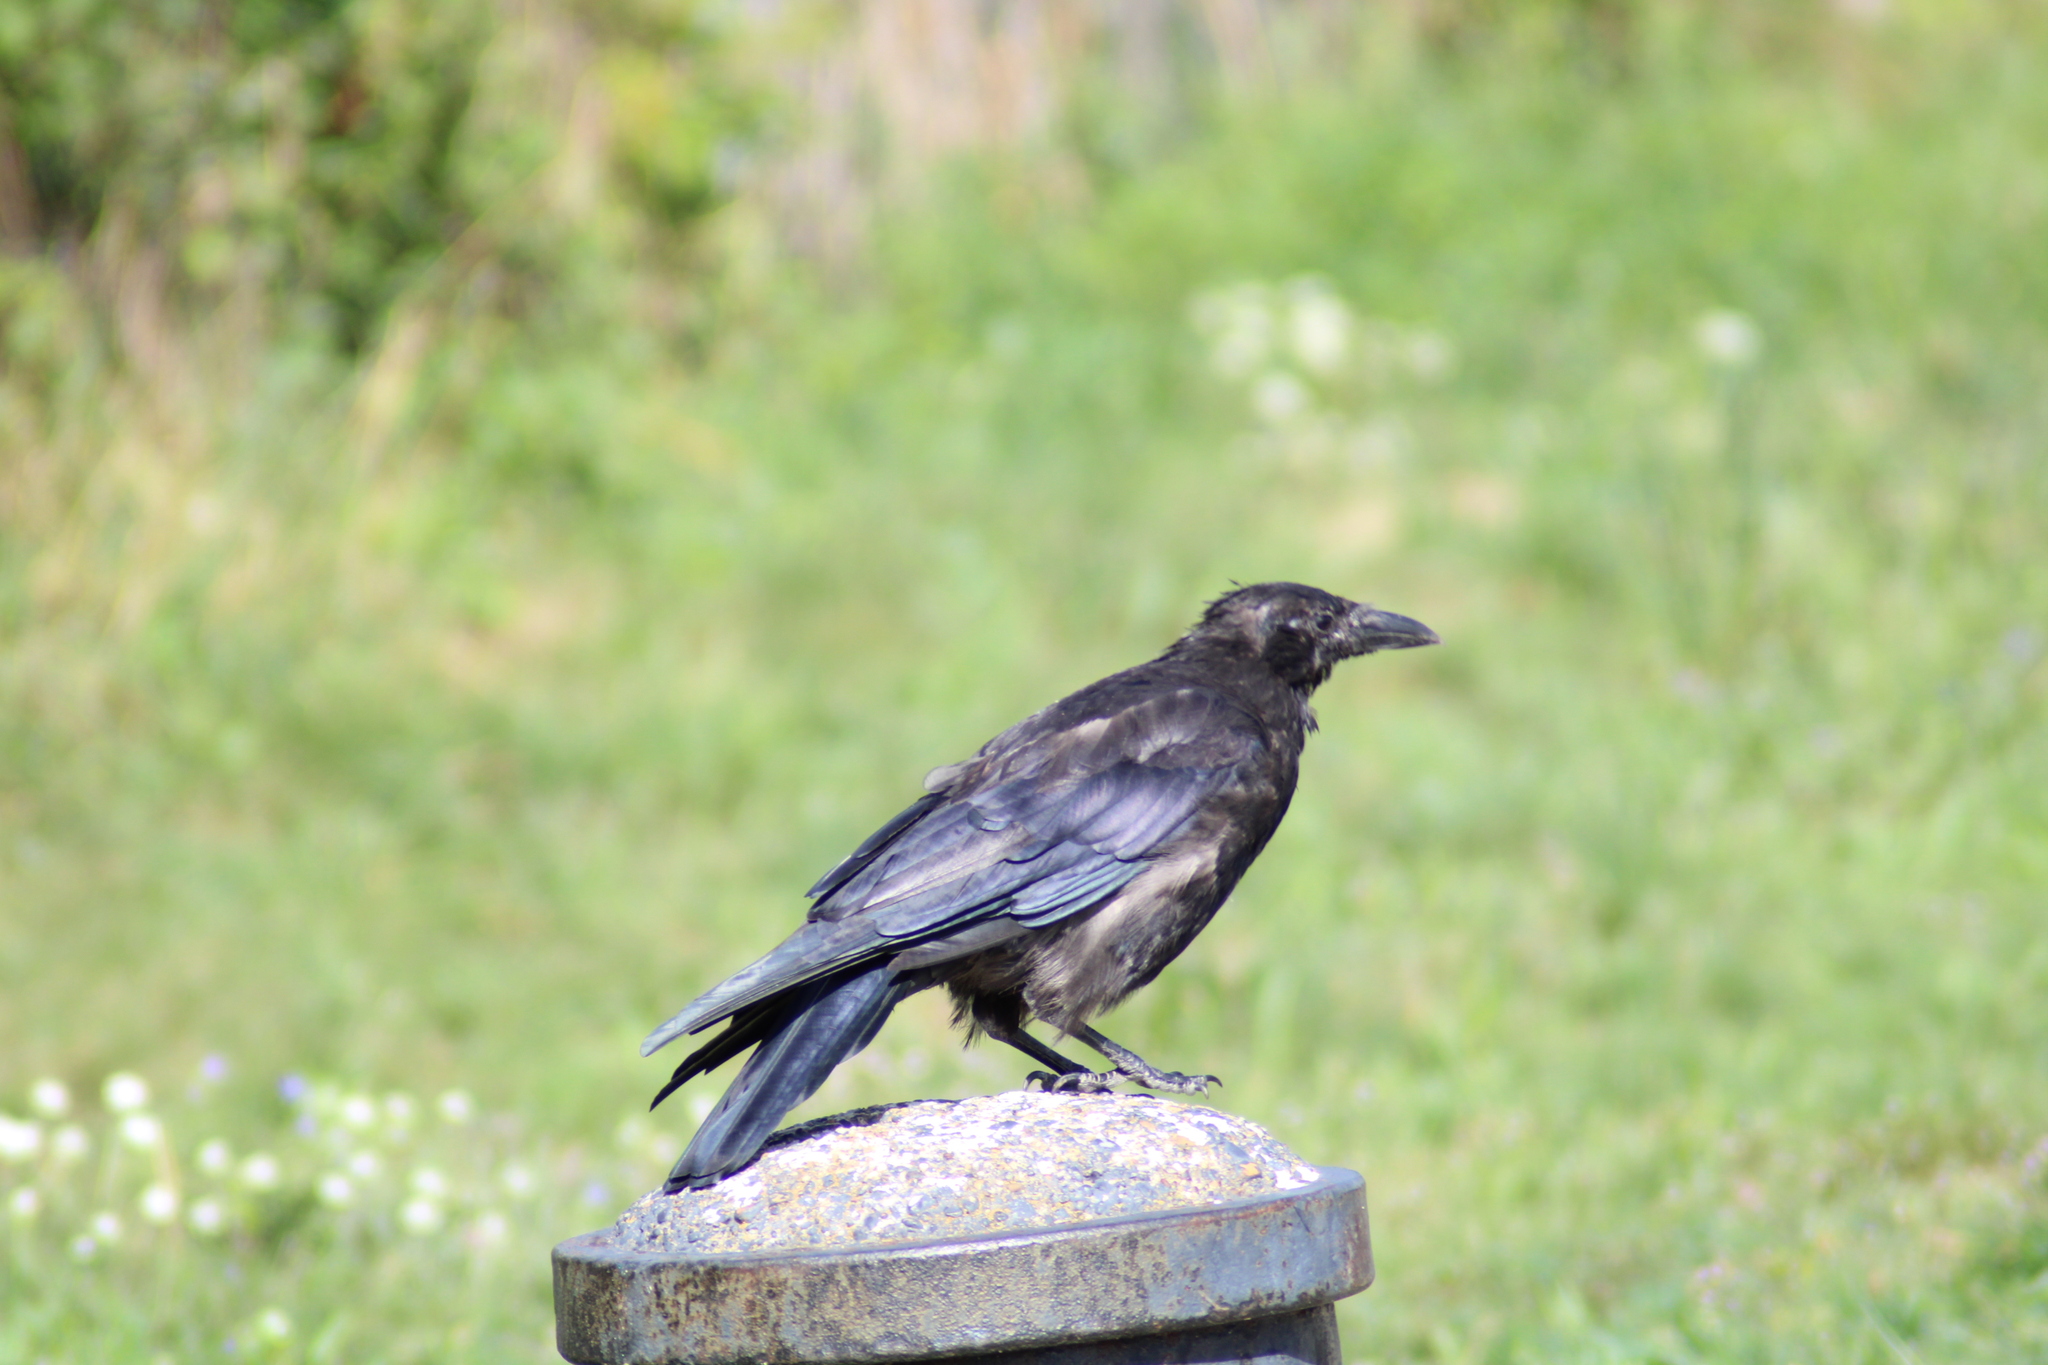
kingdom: Animalia
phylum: Chordata
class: Aves
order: Passeriformes
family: Corvidae
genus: Corvus
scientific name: Corvus
